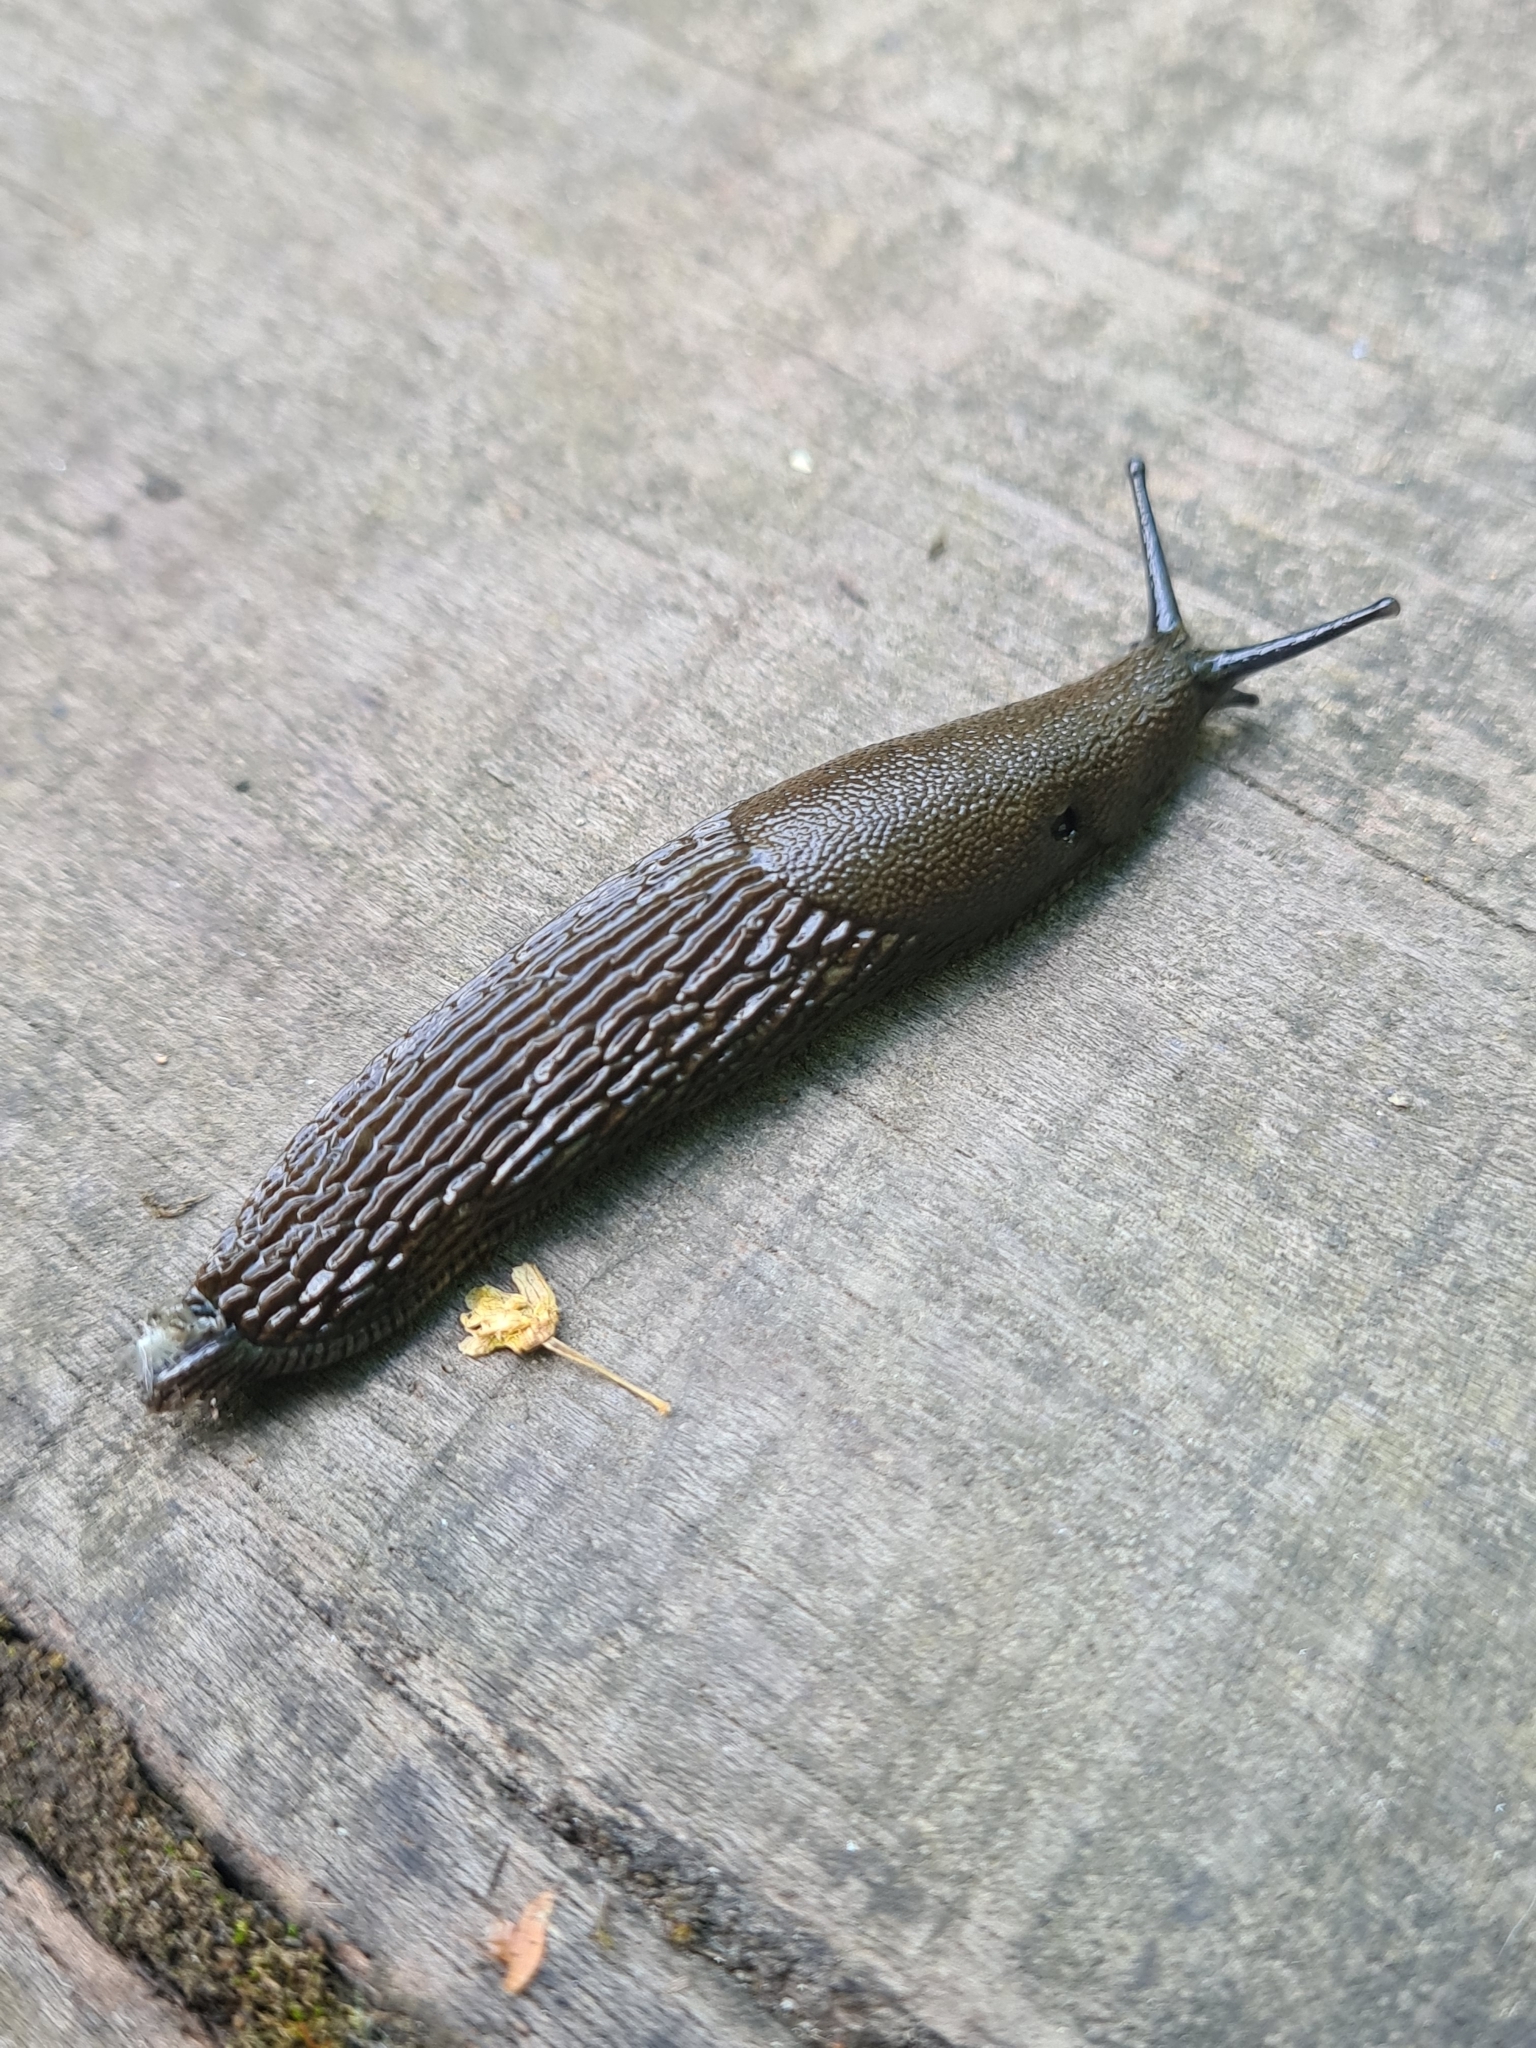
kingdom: Animalia
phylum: Mollusca
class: Gastropoda
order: Stylommatophora
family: Arionidae
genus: Arion
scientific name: Arion vulgaris
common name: Lusitanian slug
